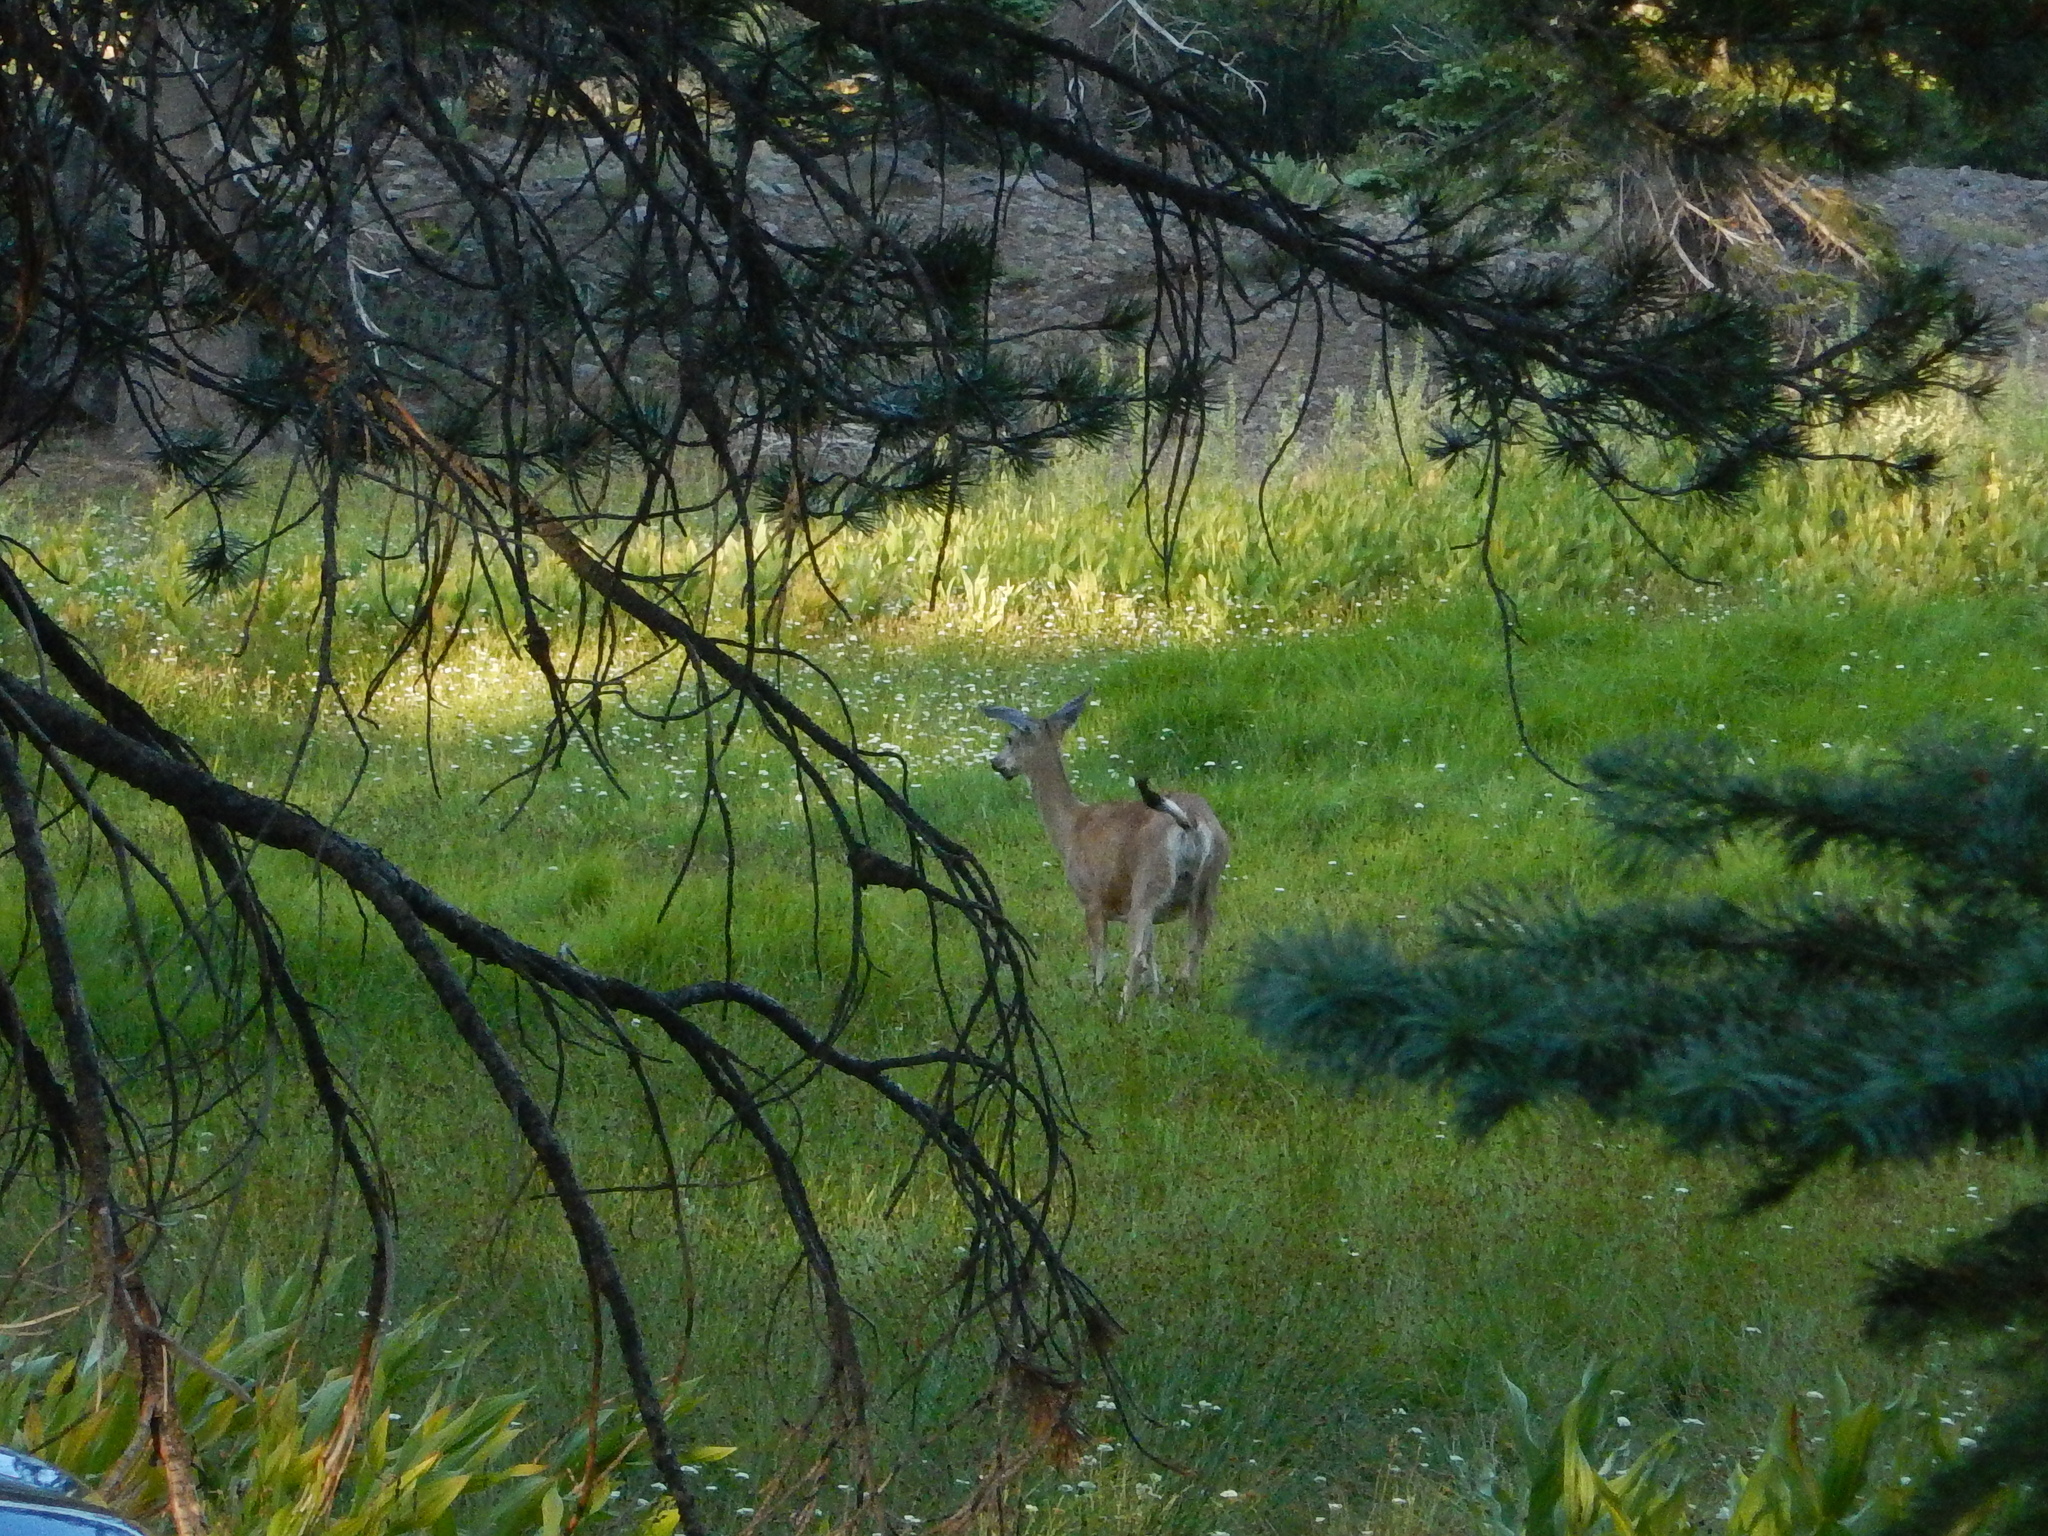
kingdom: Animalia
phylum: Chordata
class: Mammalia
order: Artiodactyla
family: Cervidae
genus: Odocoileus
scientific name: Odocoileus hemionus
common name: Mule deer
